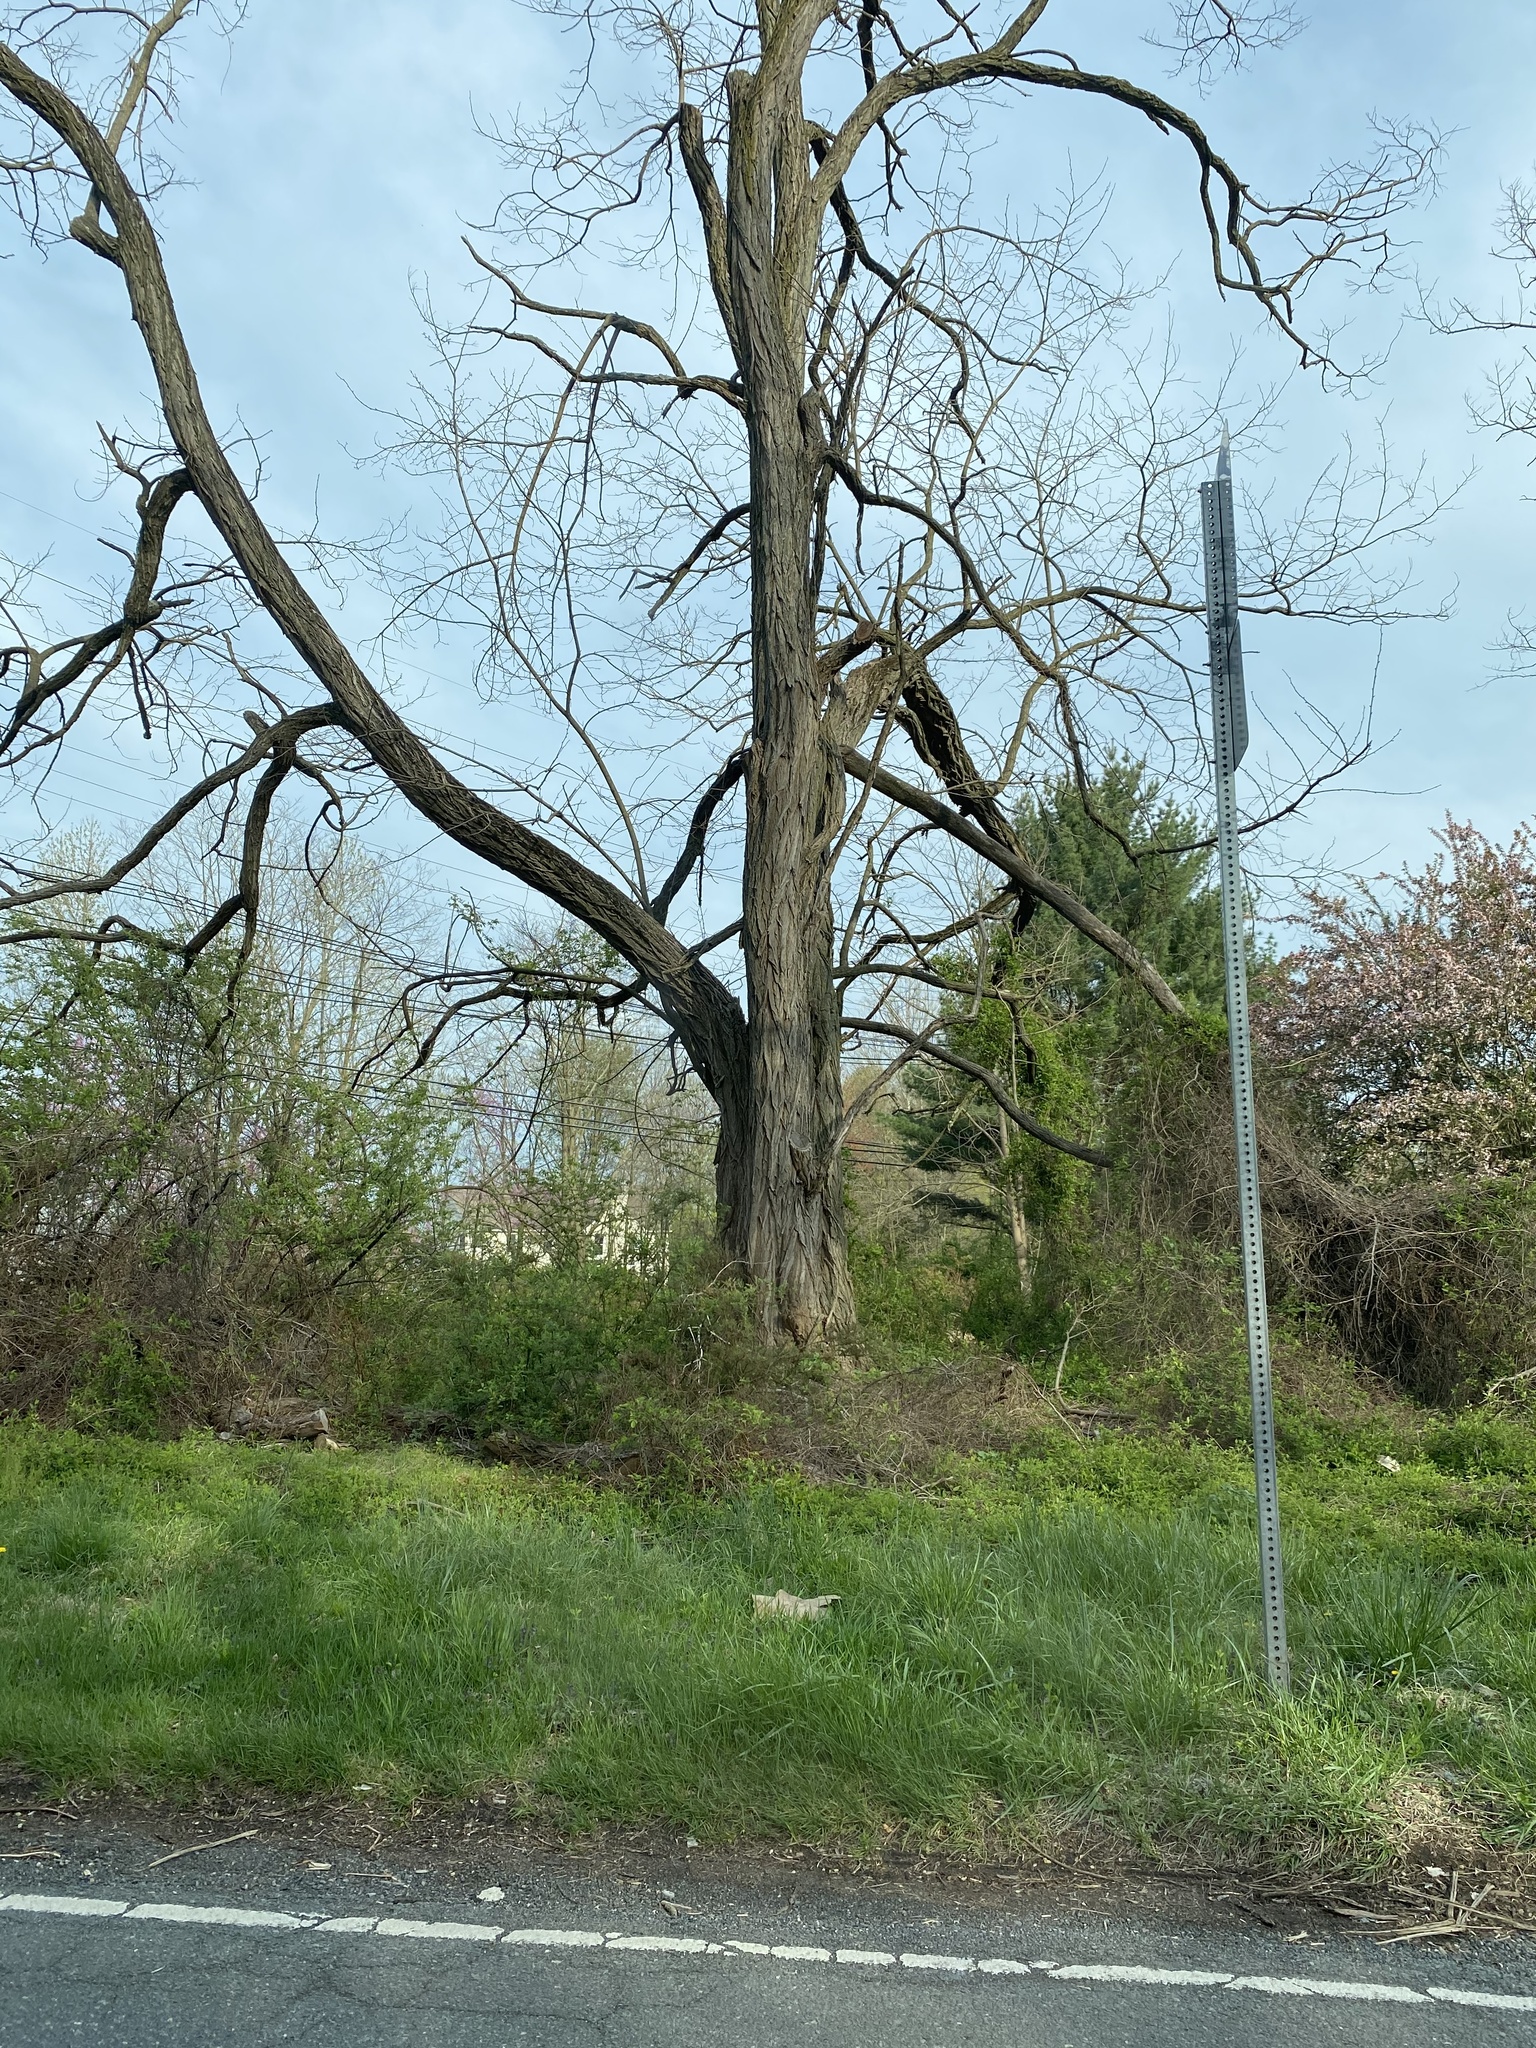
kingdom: Plantae
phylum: Tracheophyta
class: Magnoliopsida
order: Fabales
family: Fabaceae
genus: Robinia
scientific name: Robinia pseudoacacia
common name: Black locust
